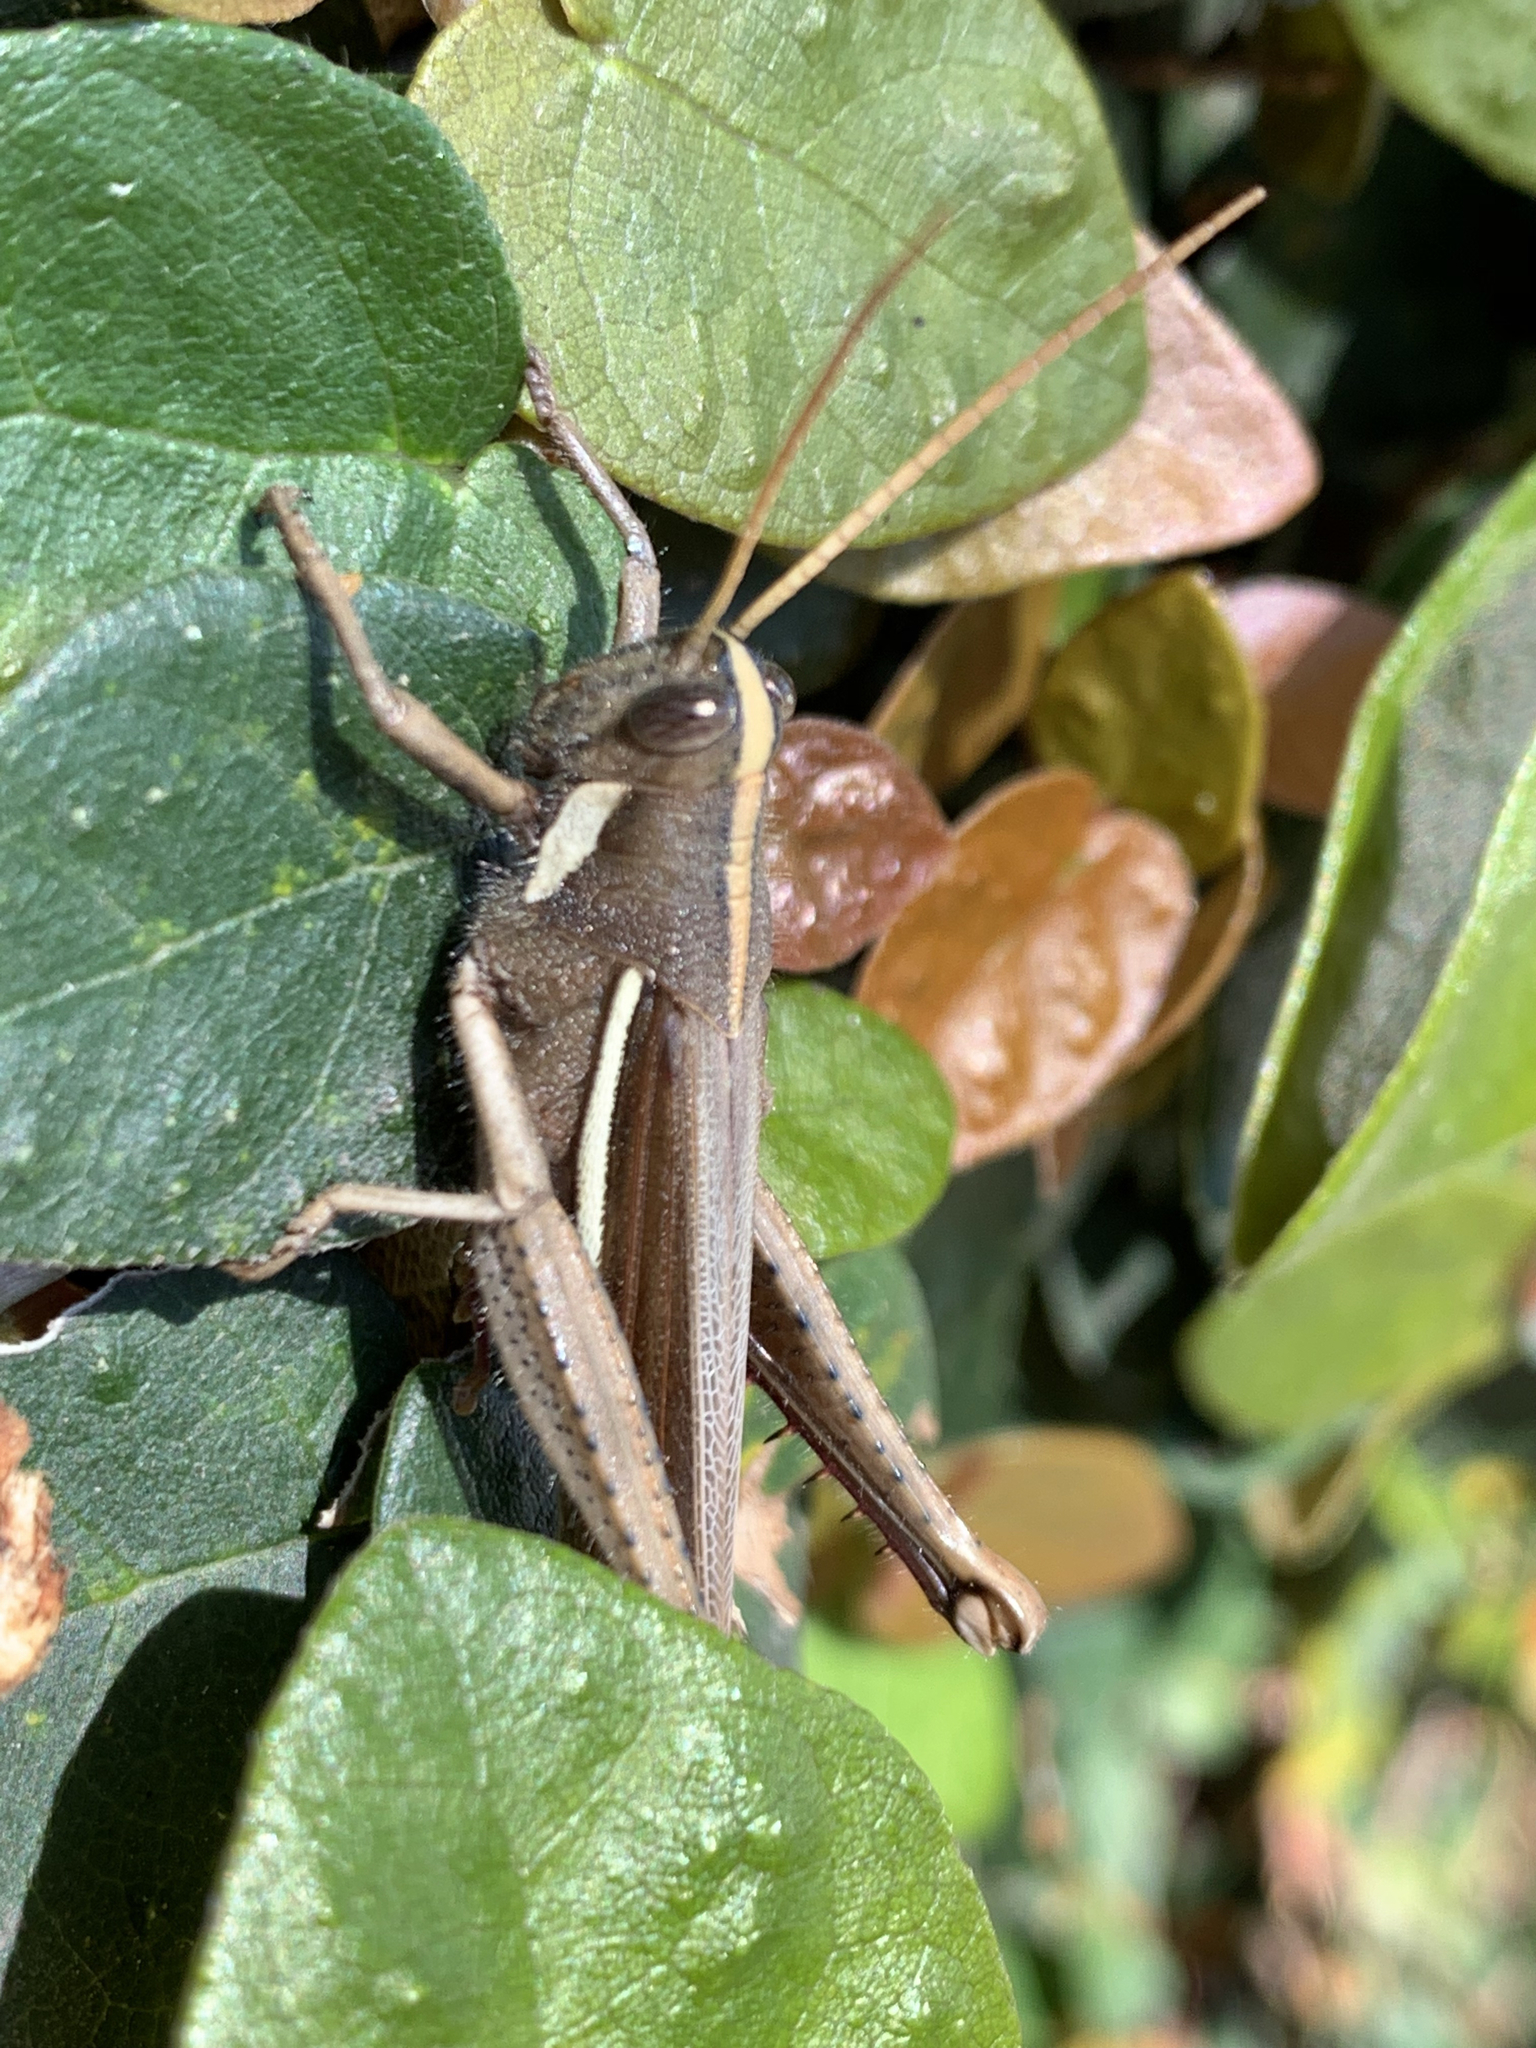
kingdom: Animalia
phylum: Arthropoda
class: Insecta
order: Orthoptera
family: Acrididae
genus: Schistocerca
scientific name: Schistocerca flavofasciata
